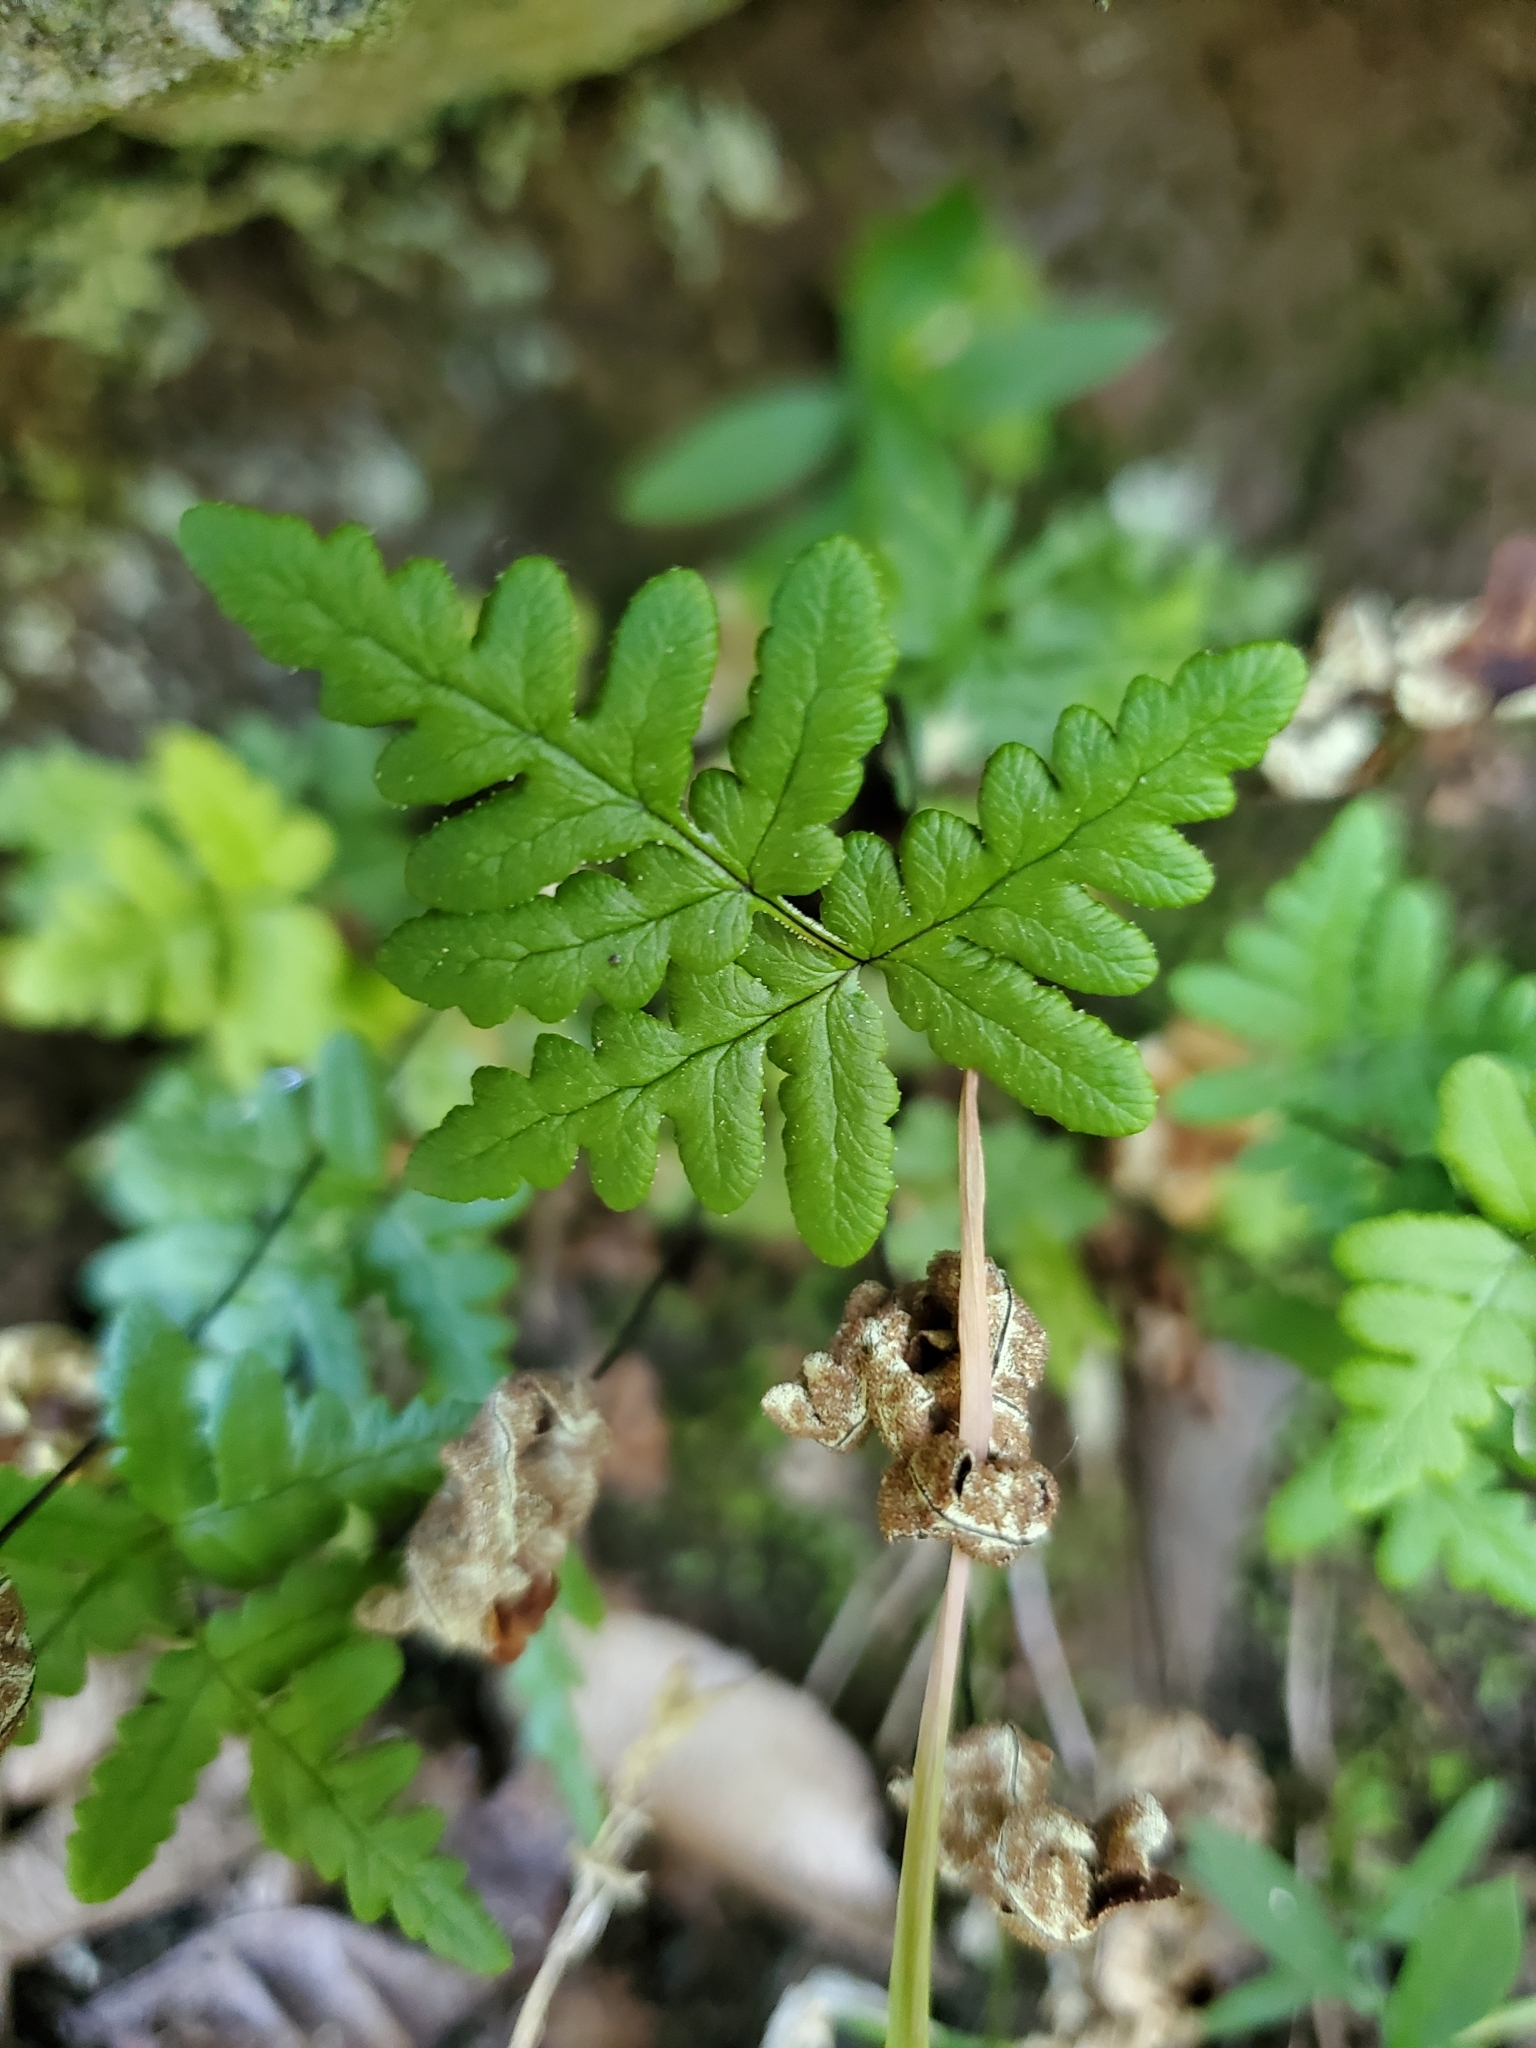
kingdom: Plantae
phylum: Tracheophyta
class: Polypodiopsida
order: Polypodiales
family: Pteridaceae
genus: Pentagramma
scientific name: Pentagramma triangularis
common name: Gold fern
